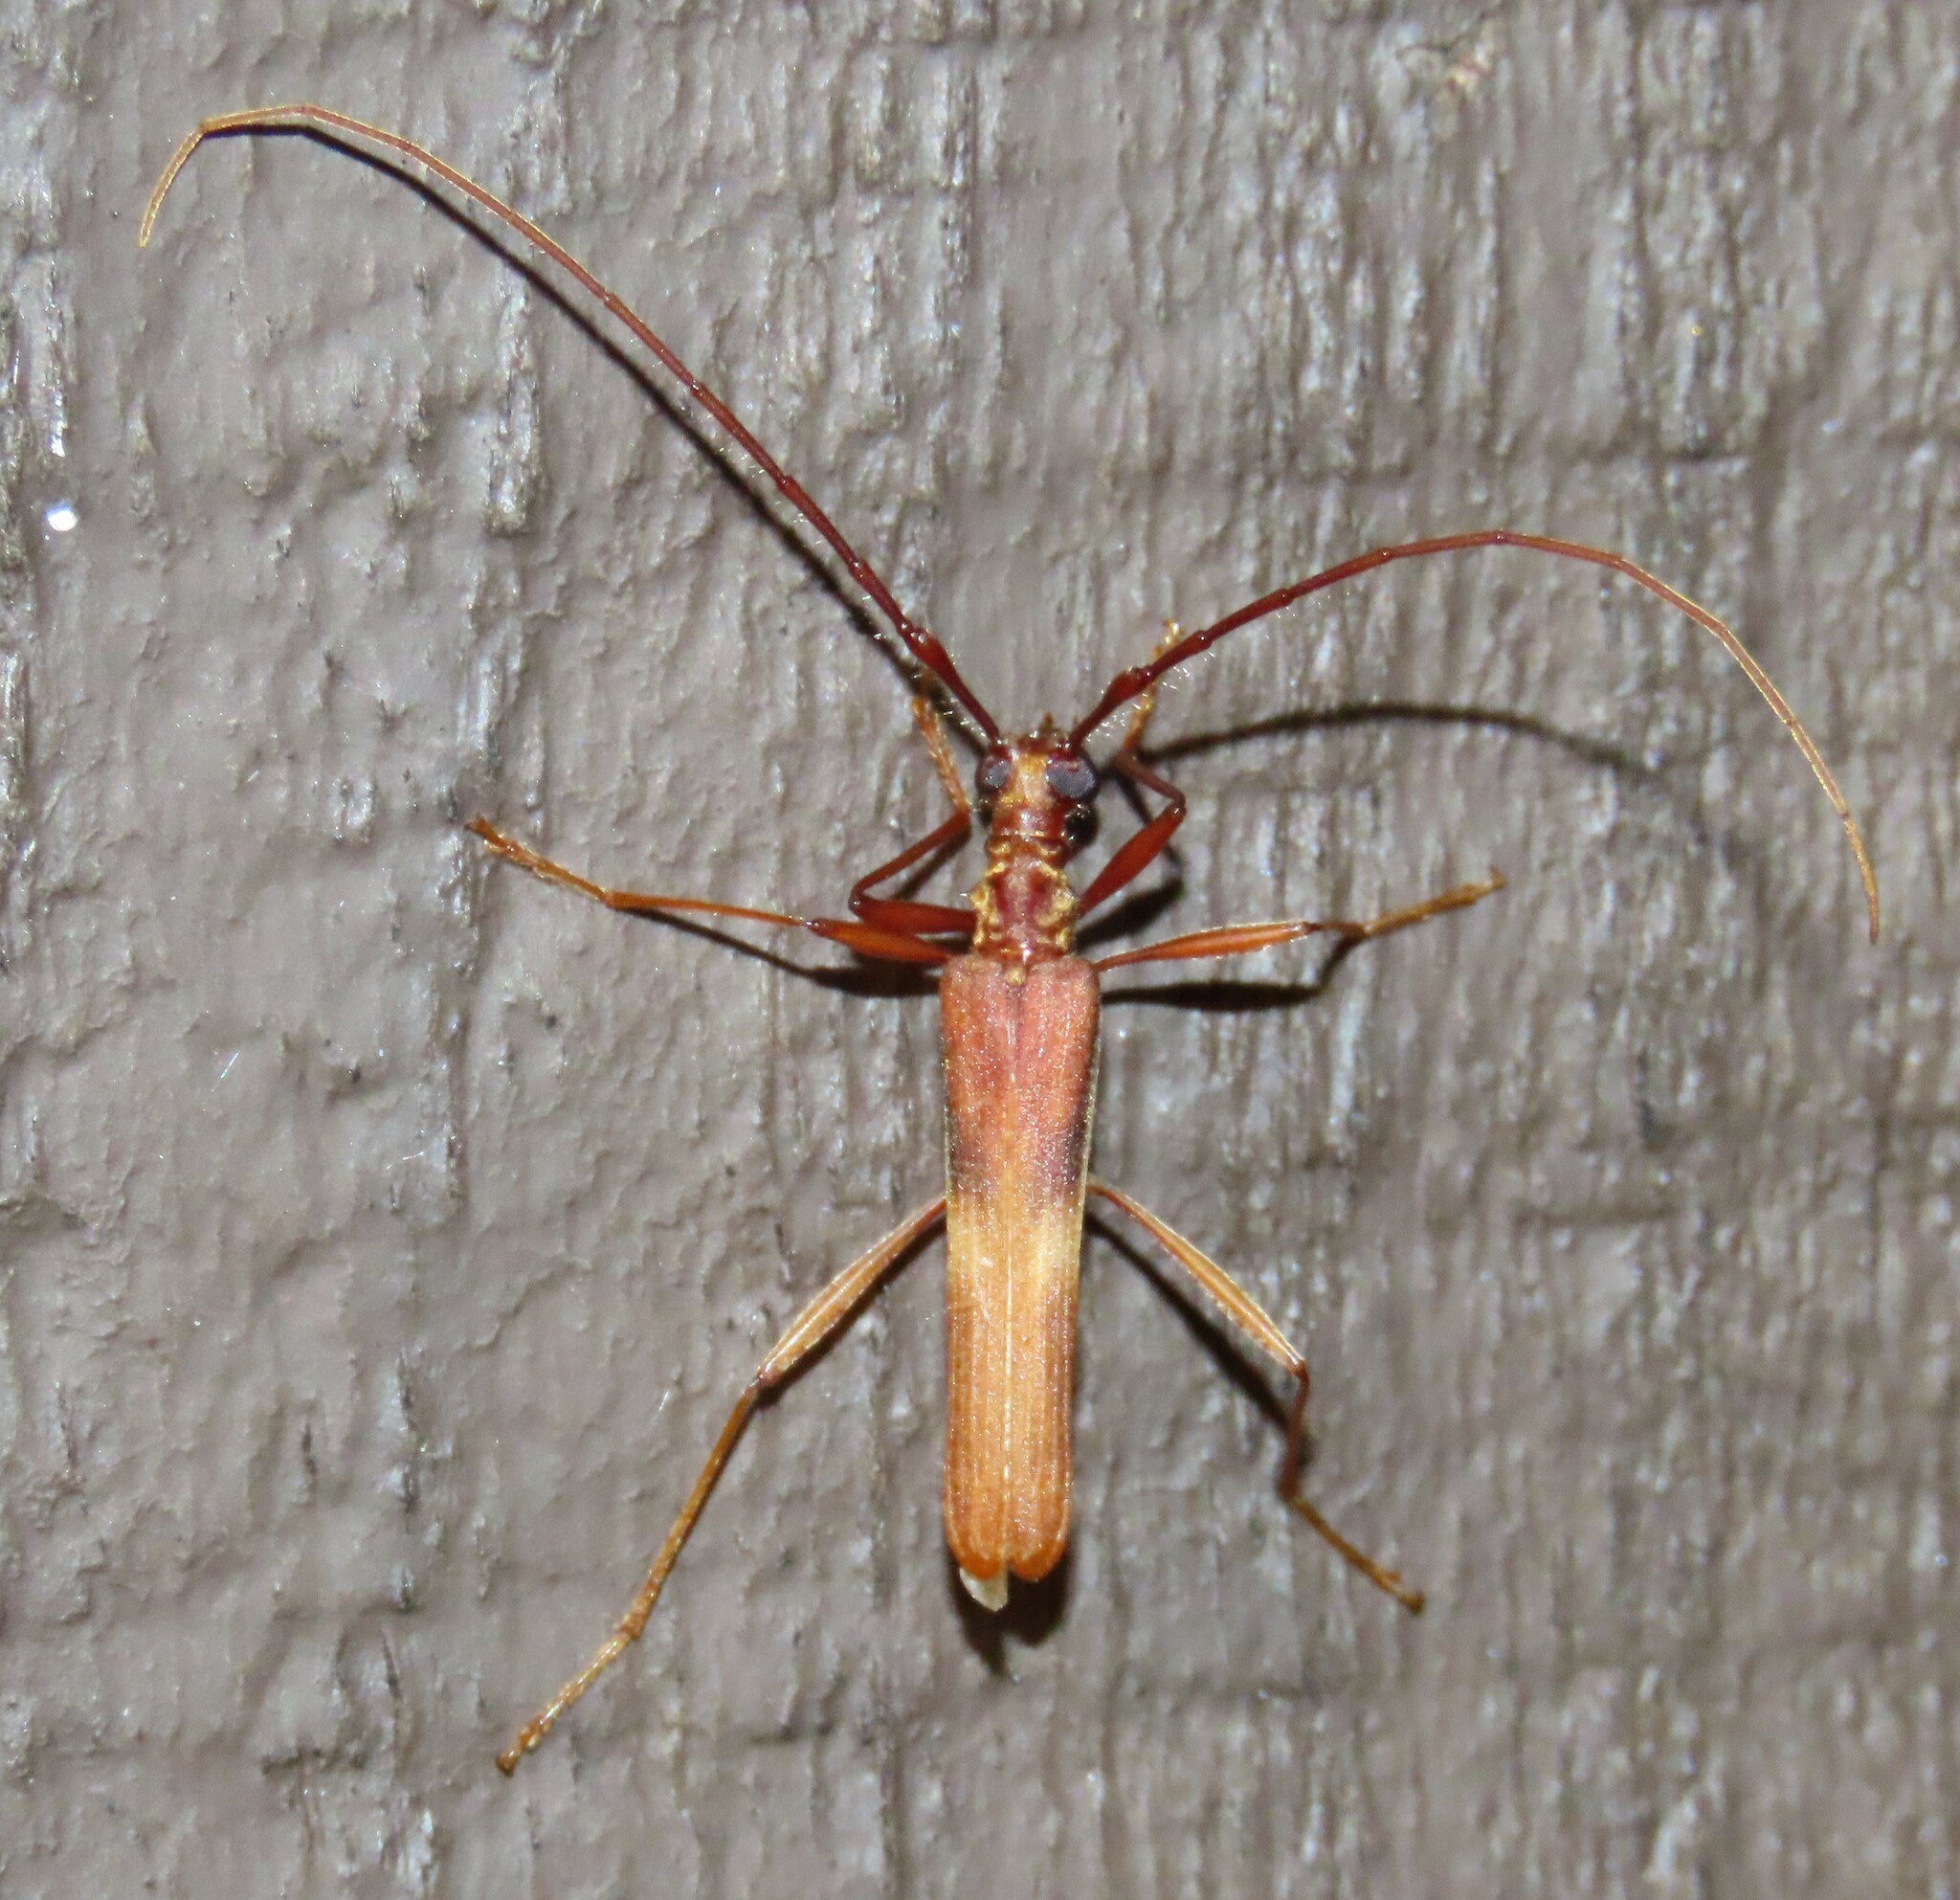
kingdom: Animalia
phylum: Arthropoda
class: Insecta
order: Coleoptera
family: Cerambycidae
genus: Calliprason
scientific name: Calliprason costifer
